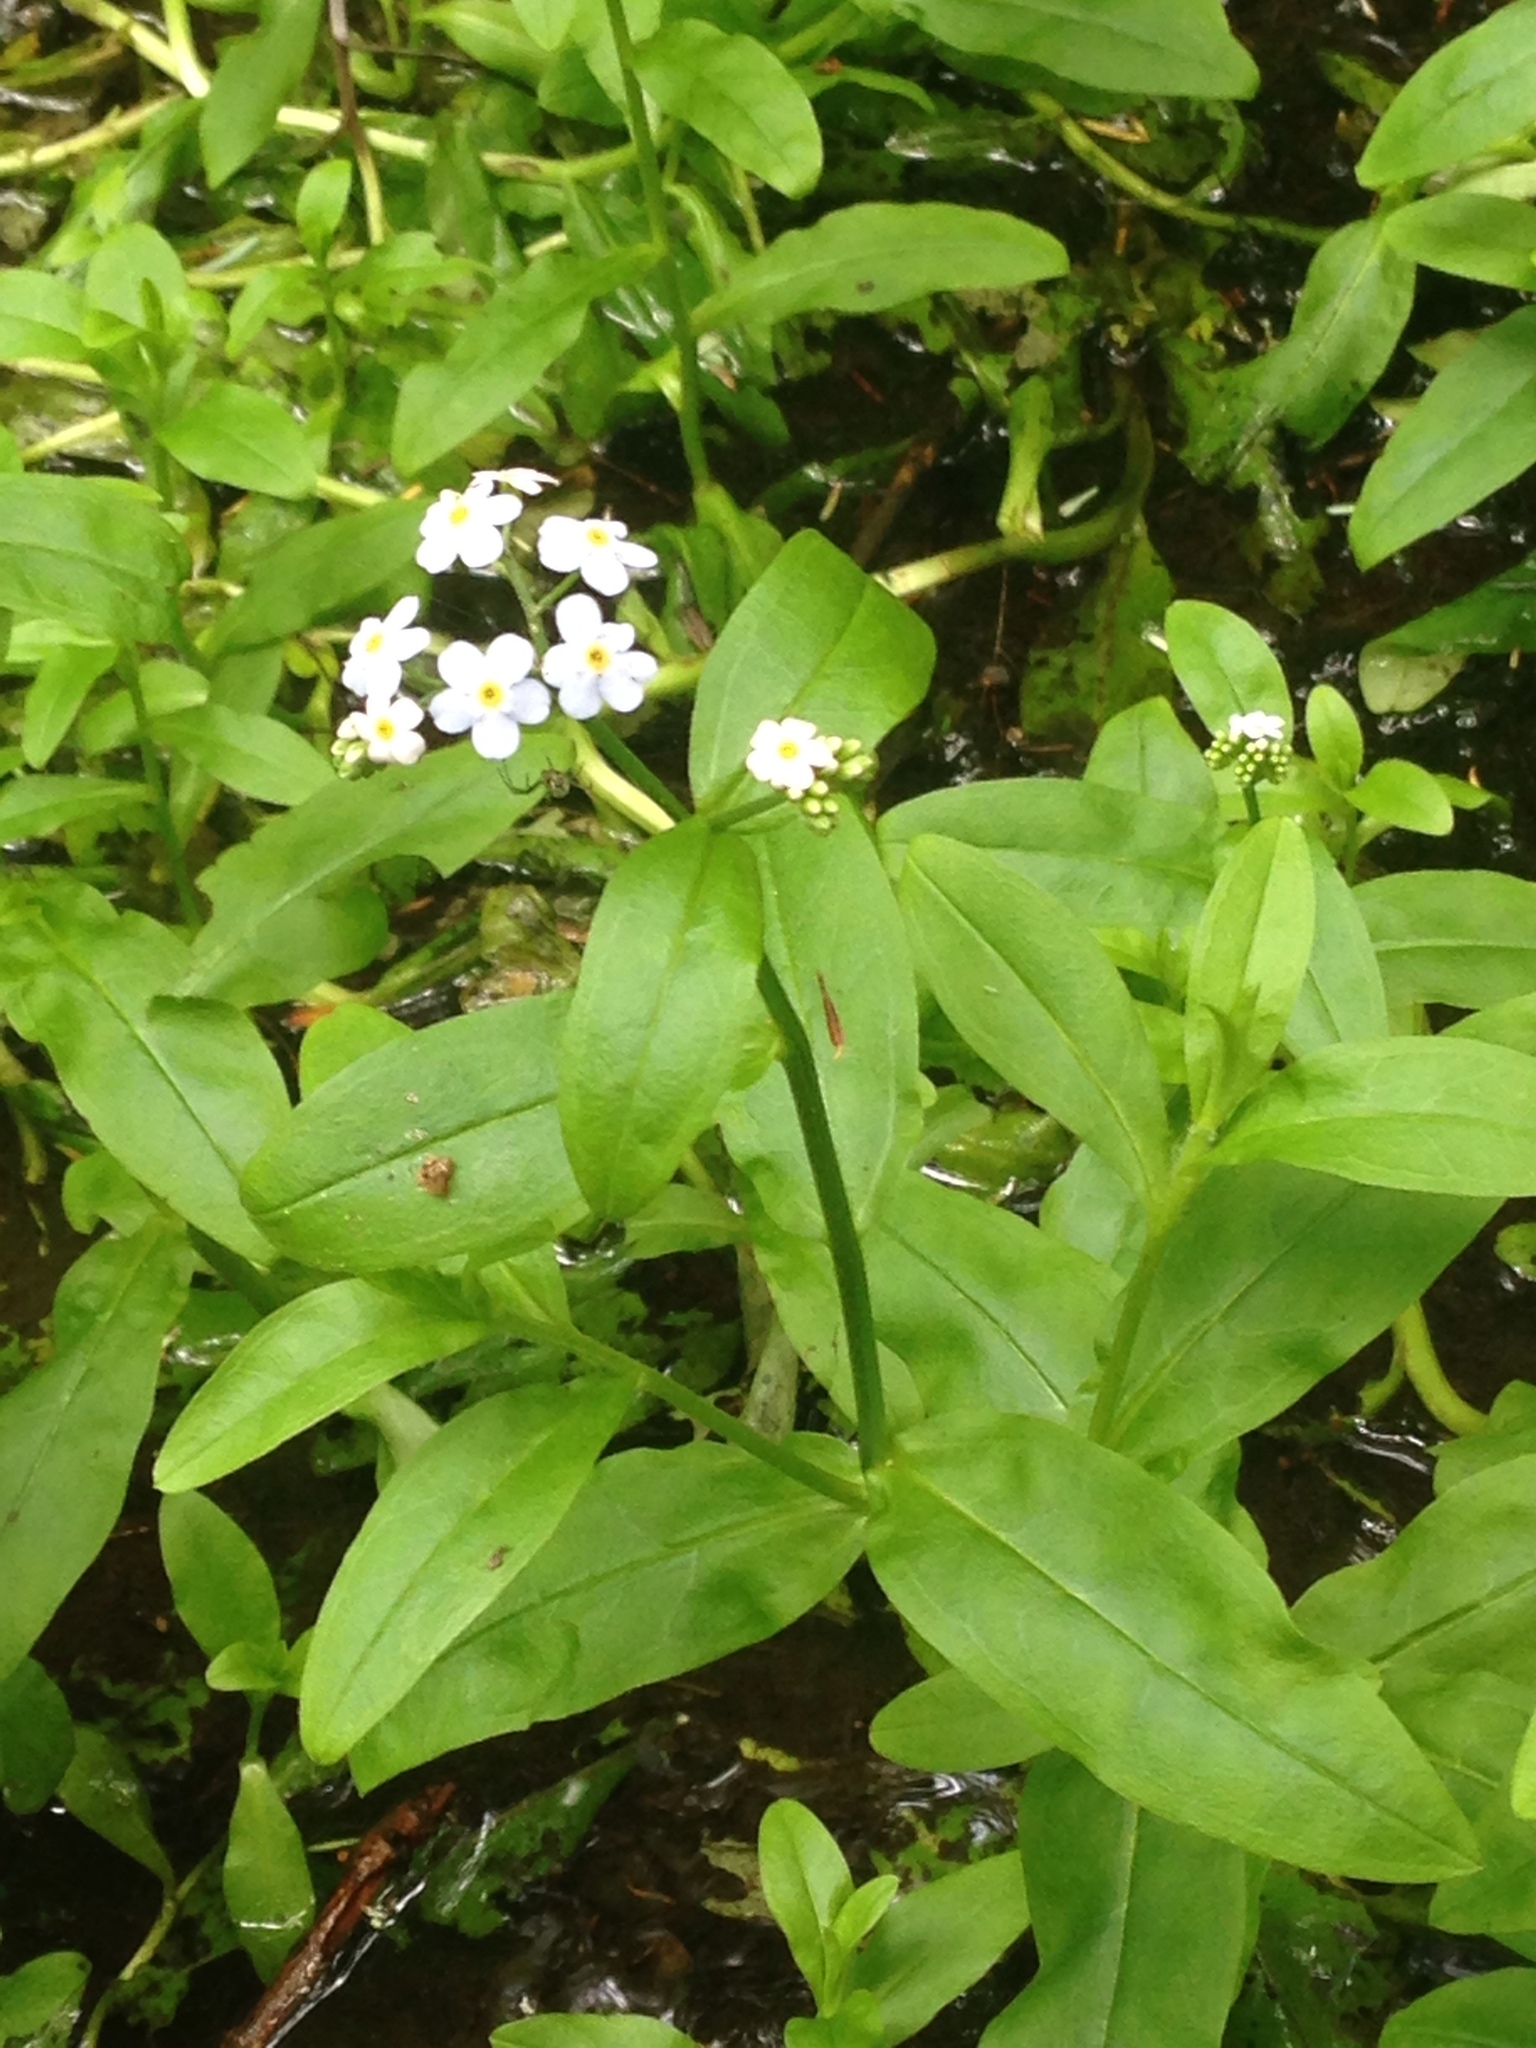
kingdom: Plantae
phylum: Tracheophyta
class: Magnoliopsida
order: Boraginales
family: Boraginaceae
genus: Myosotis
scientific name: Myosotis scorpioides
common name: Water forget-me-not
